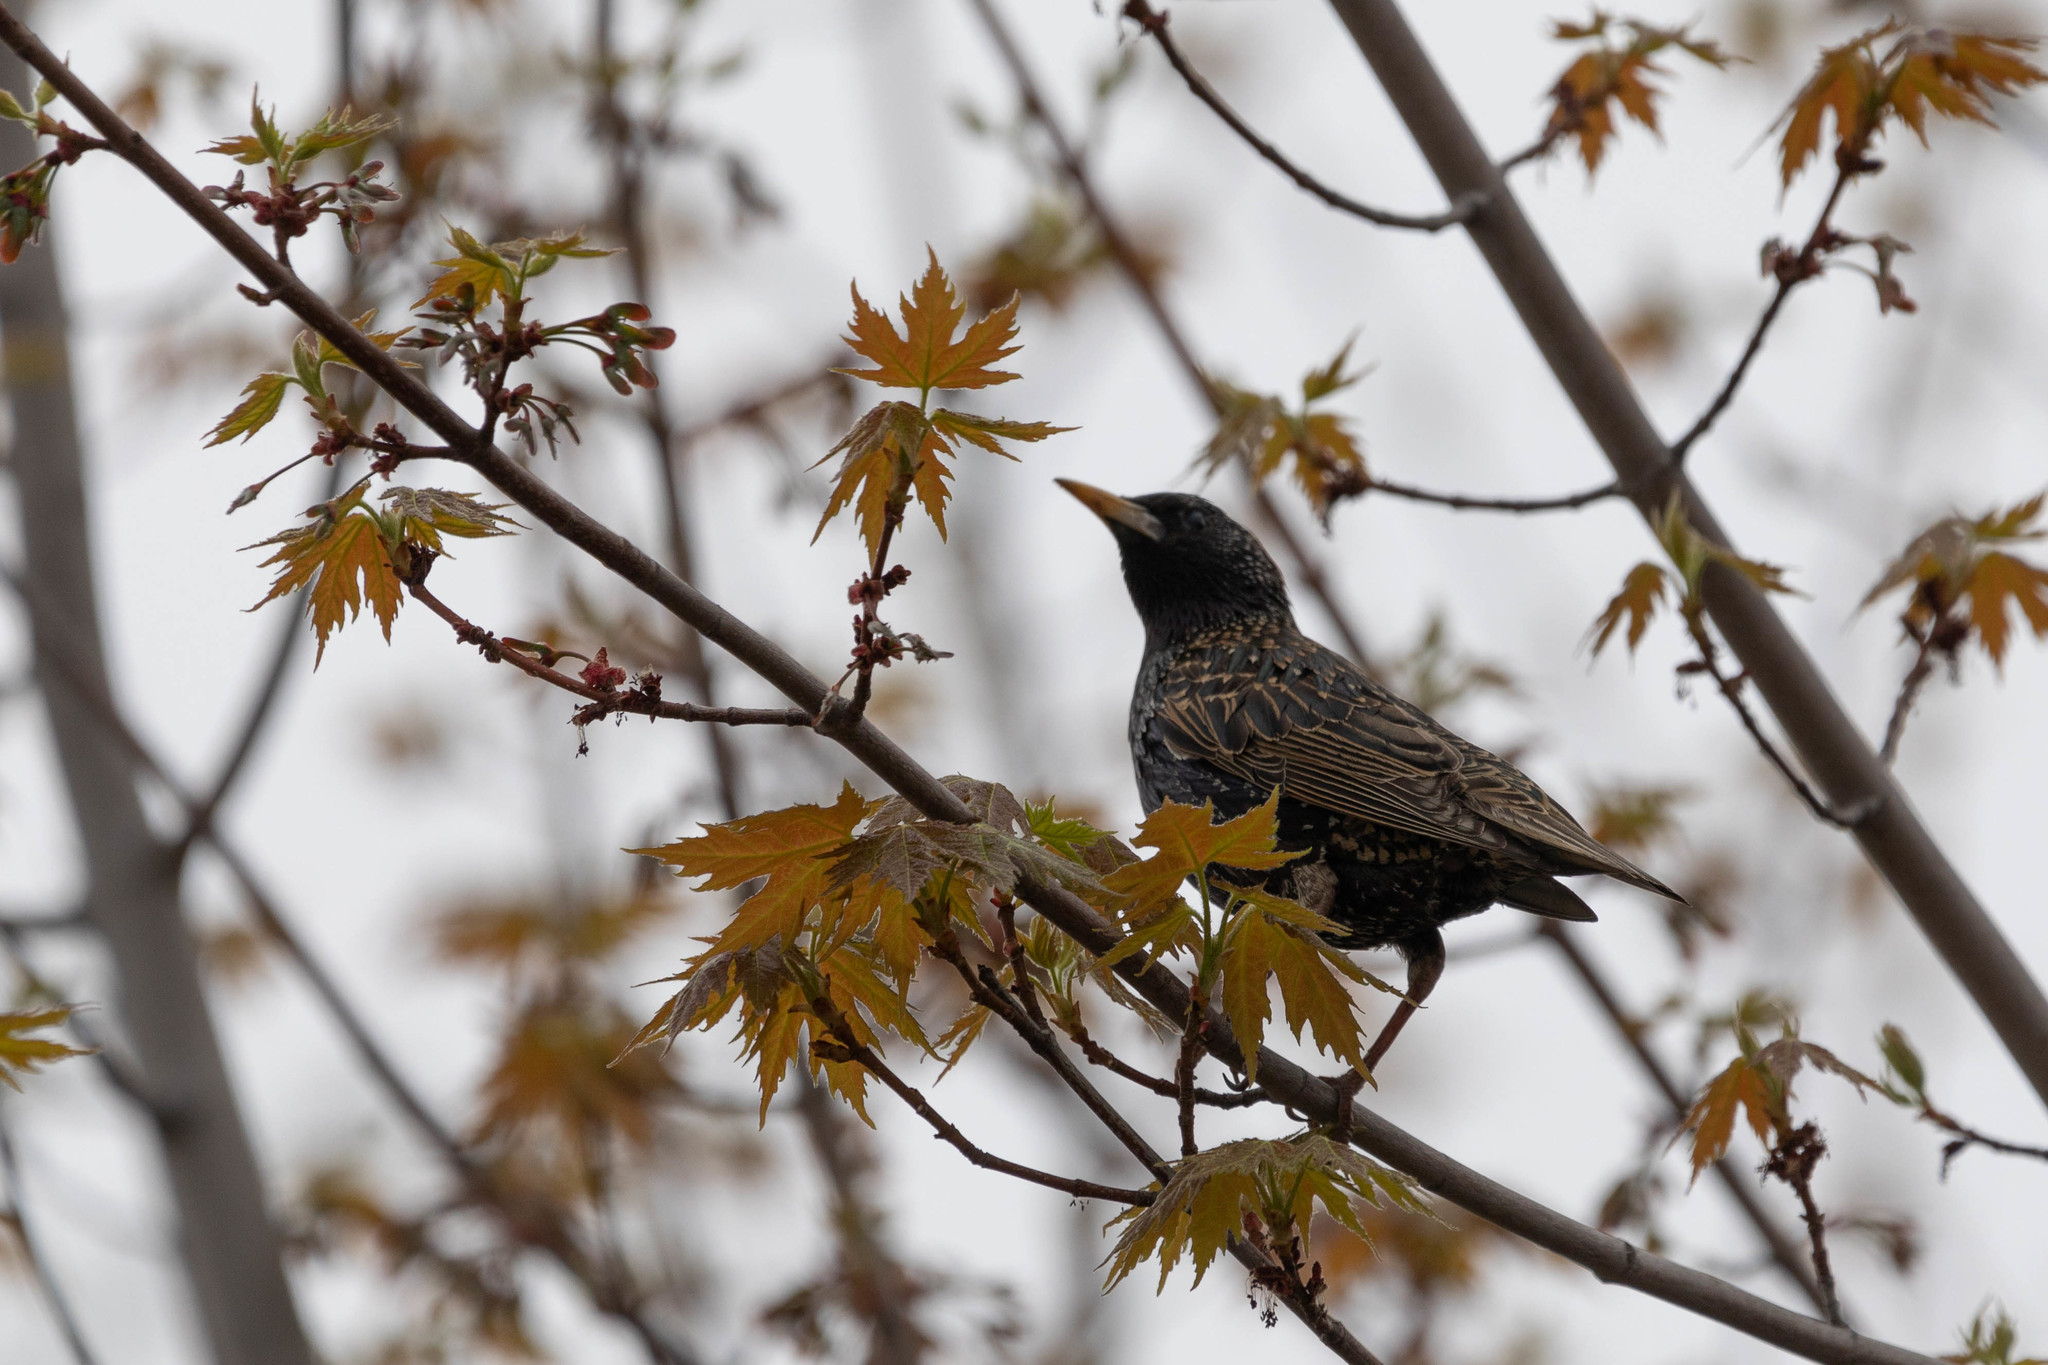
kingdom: Animalia
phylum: Chordata
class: Aves
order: Passeriformes
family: Sturnidae
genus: Sturnus
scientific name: Sturnus vulgaris
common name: Common starling
